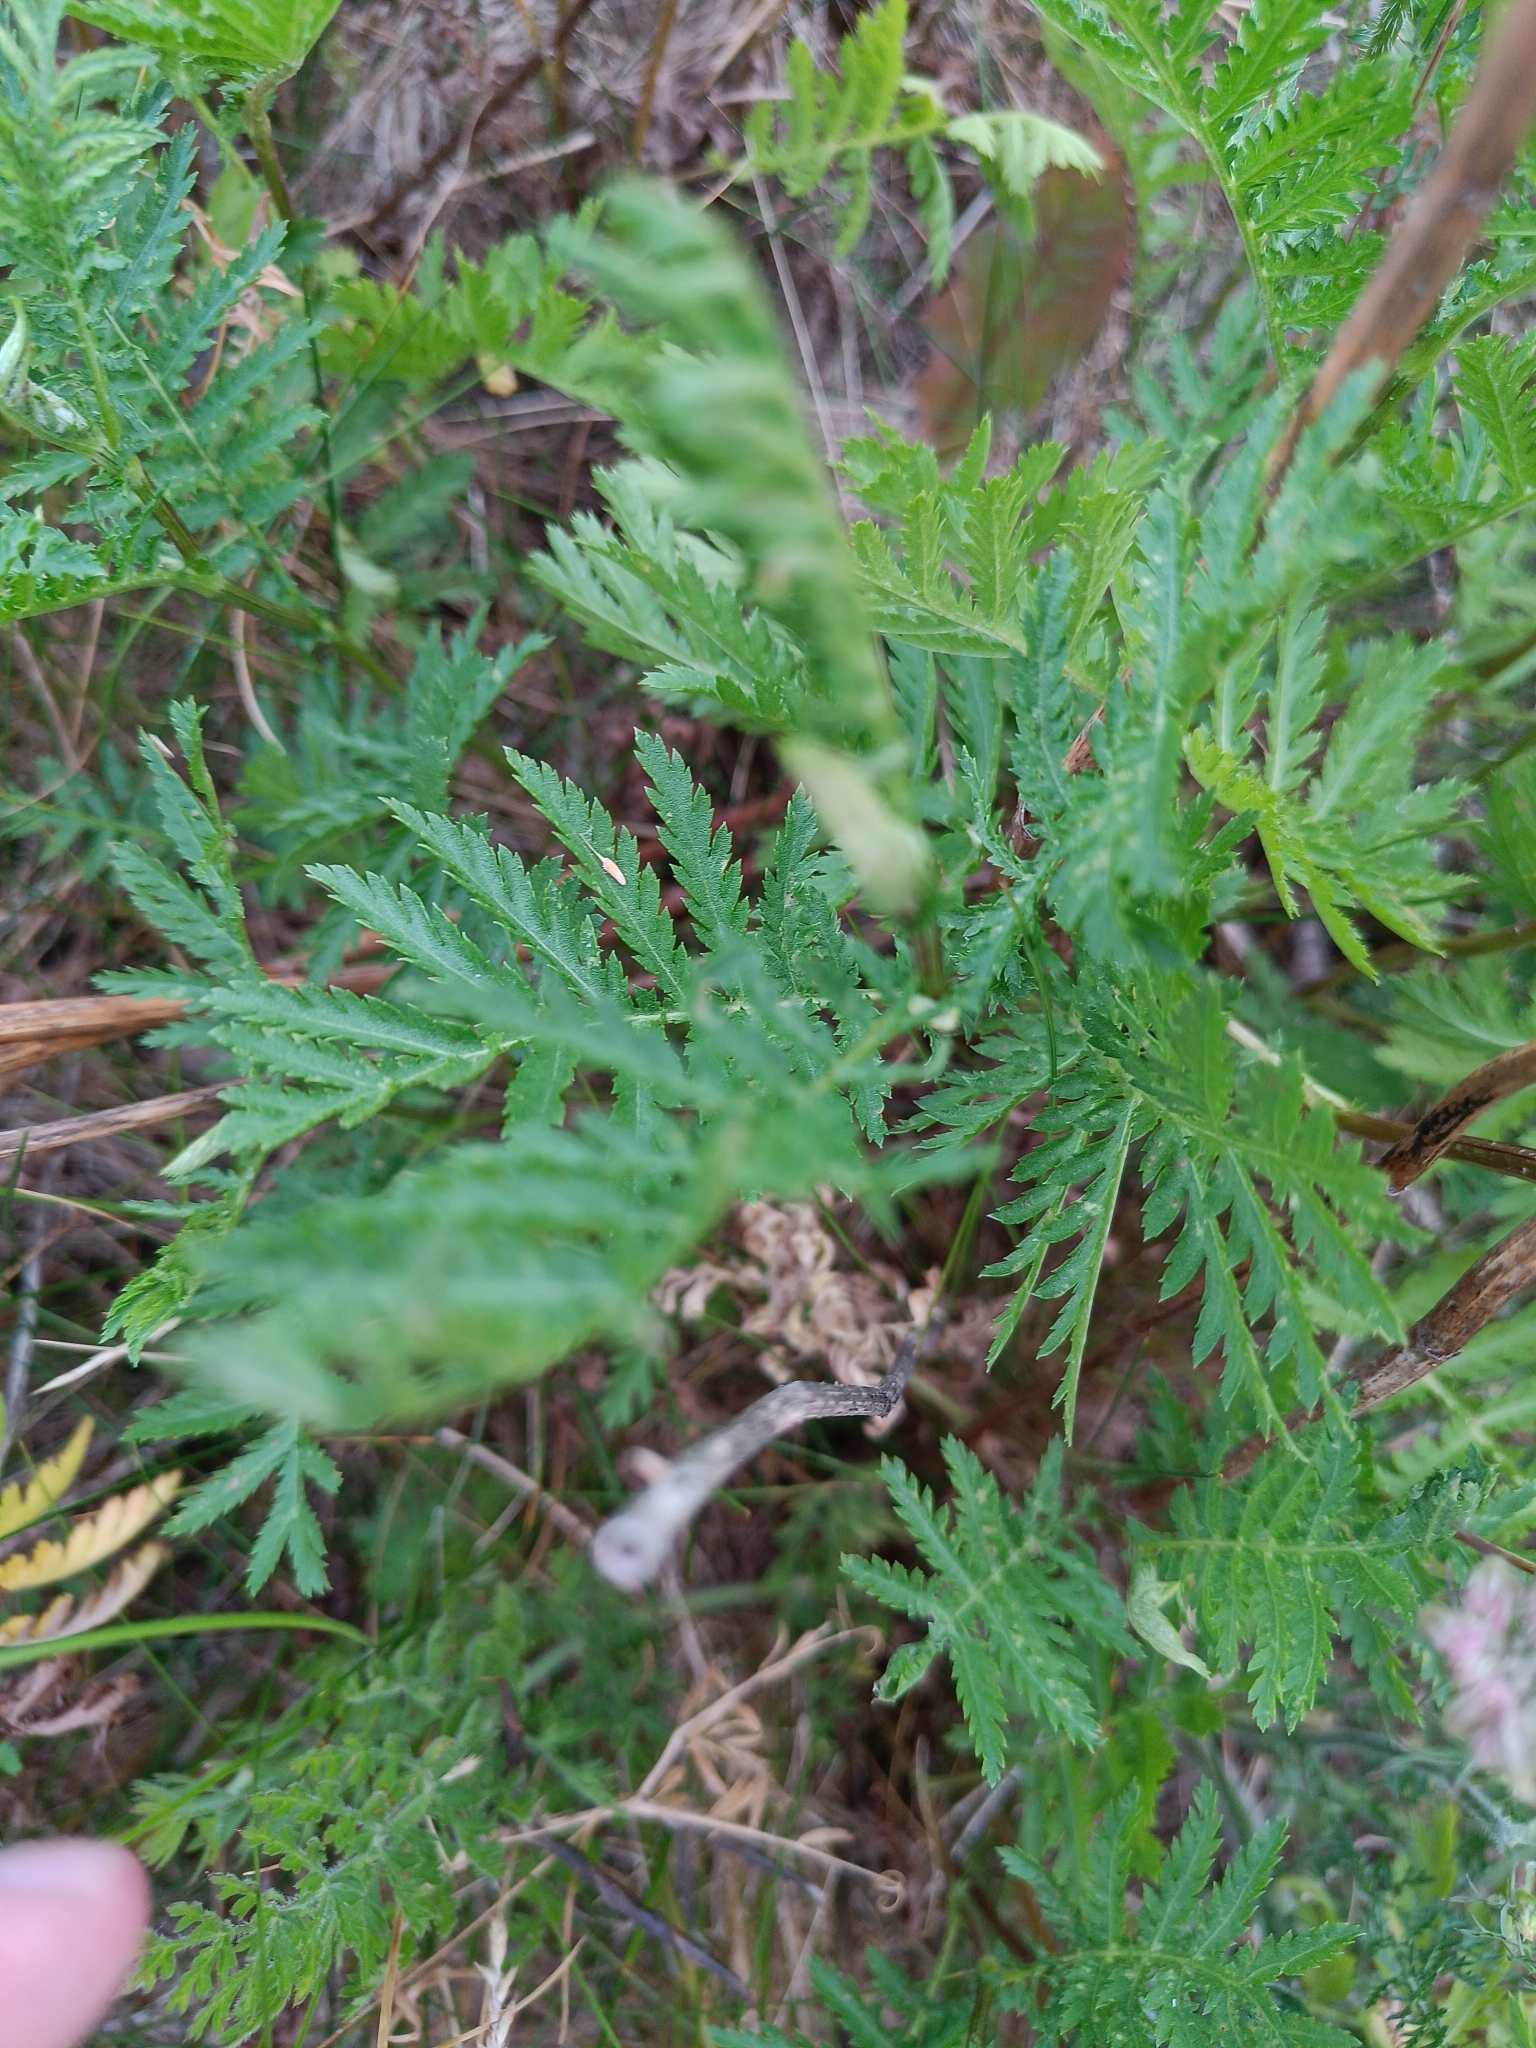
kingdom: Plantae
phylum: Tracheophyta
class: Magnoliopsida
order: Asterales
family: Asteraceae
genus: Tanacetum
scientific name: Tanacetum vulgare
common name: Common tansy
